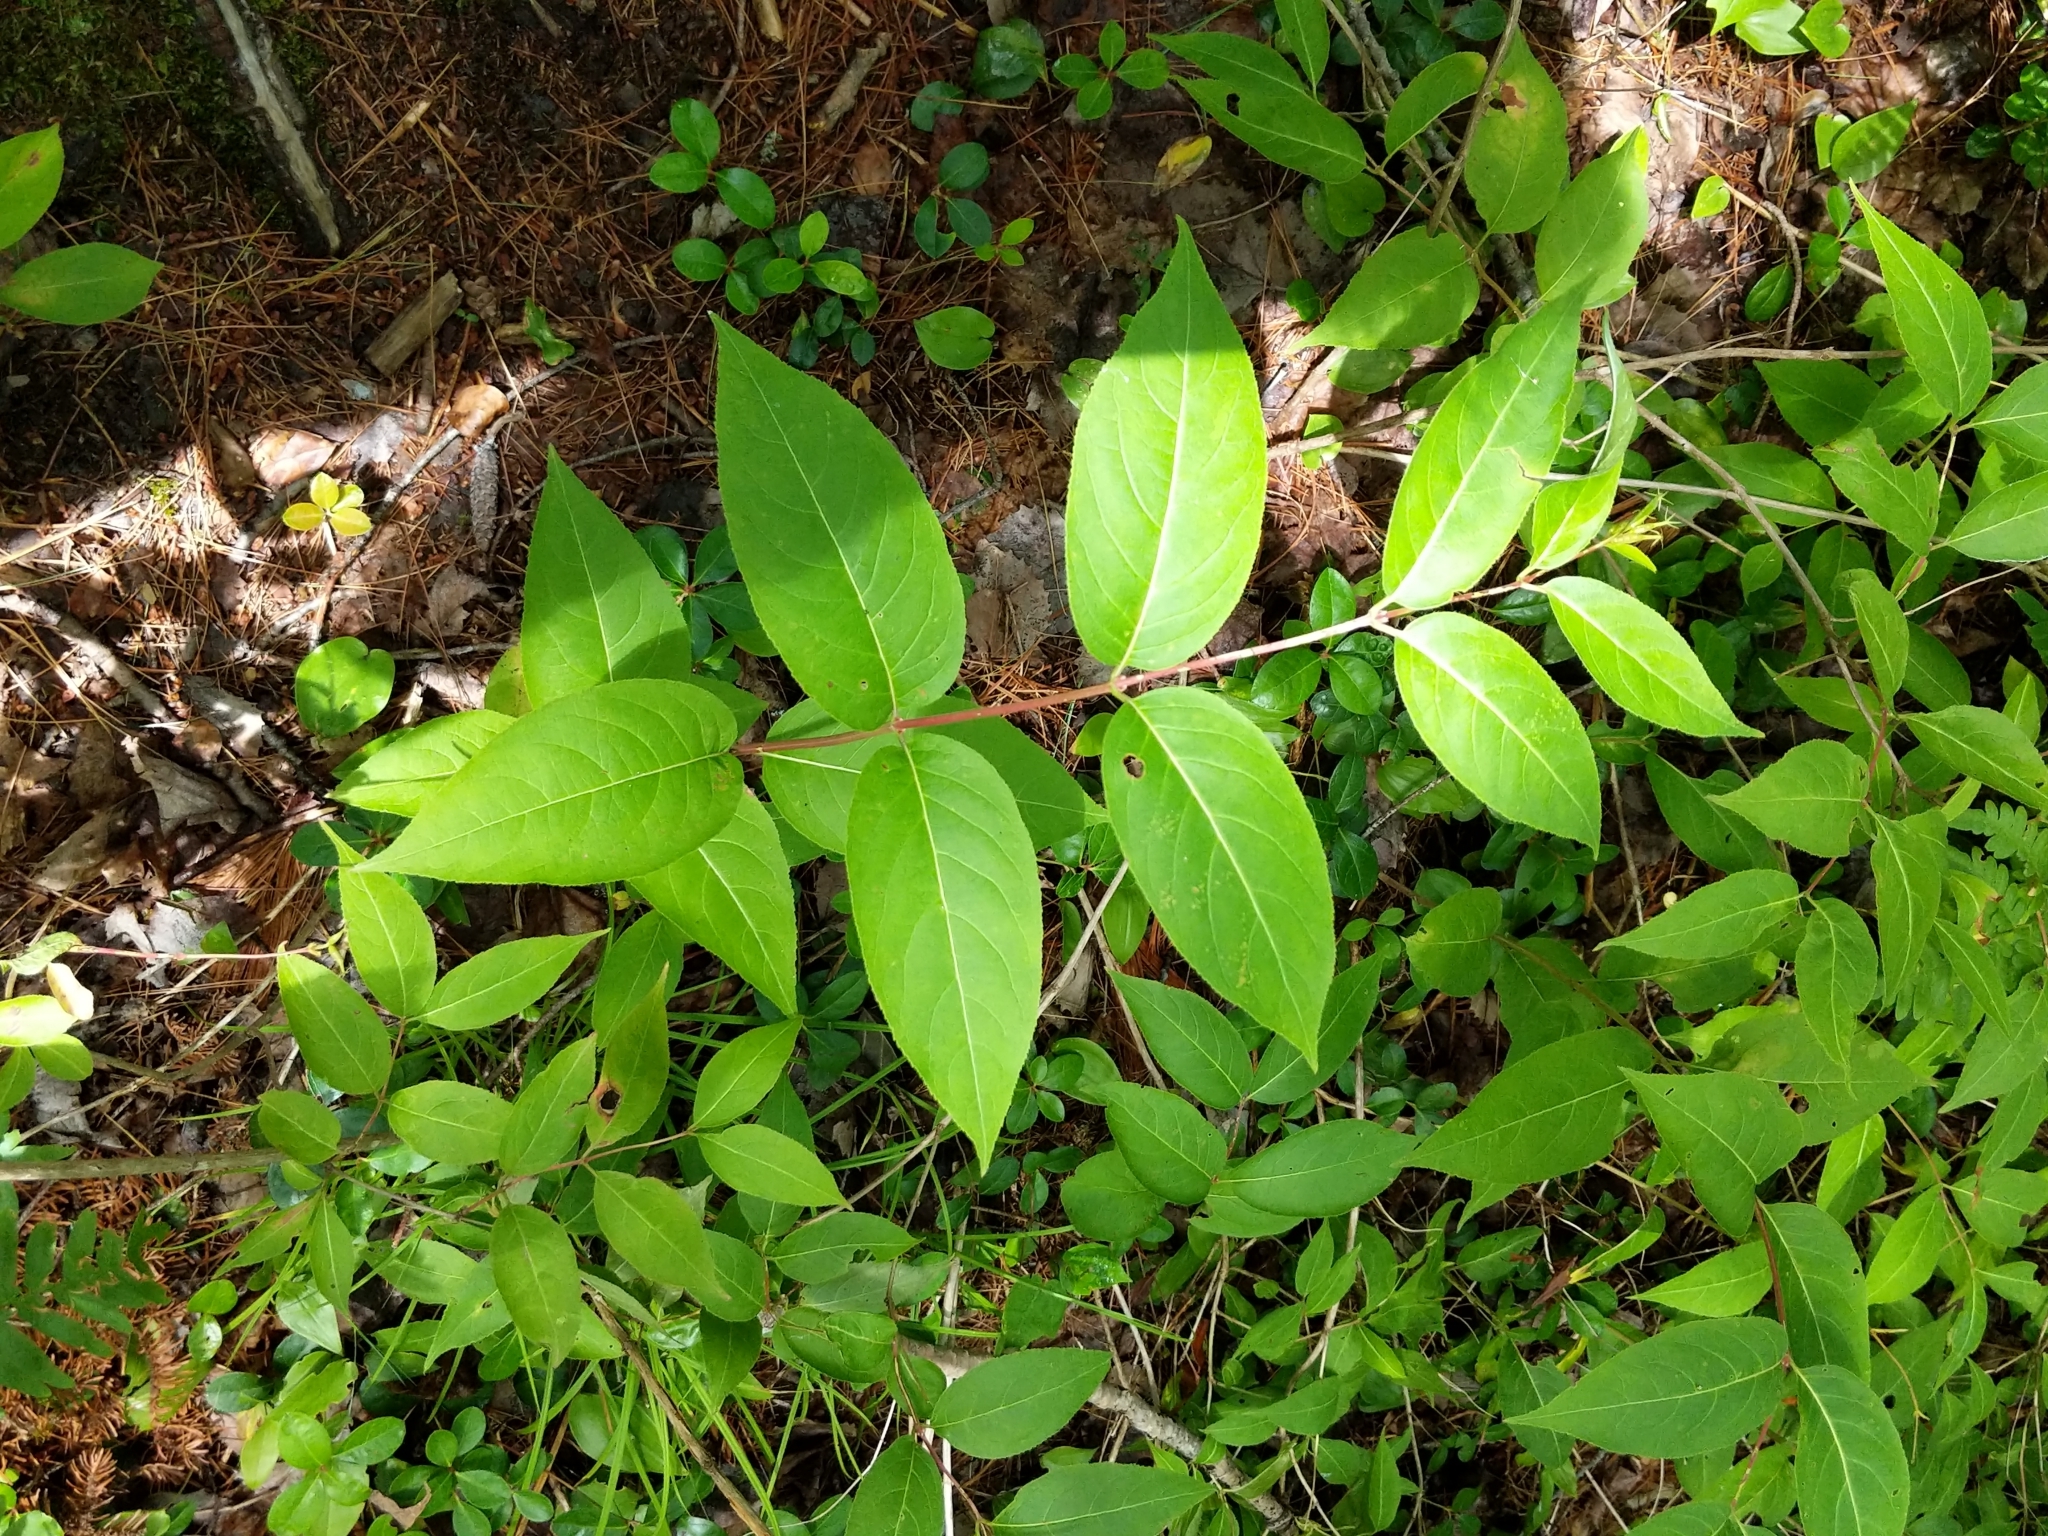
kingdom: Plantae
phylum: Tracheophyta
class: Magnoliopsida
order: Dipsacales
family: Caprifoliaceae
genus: Diervilla
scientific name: Diervilla lonicera
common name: Bush-honeysuckle
